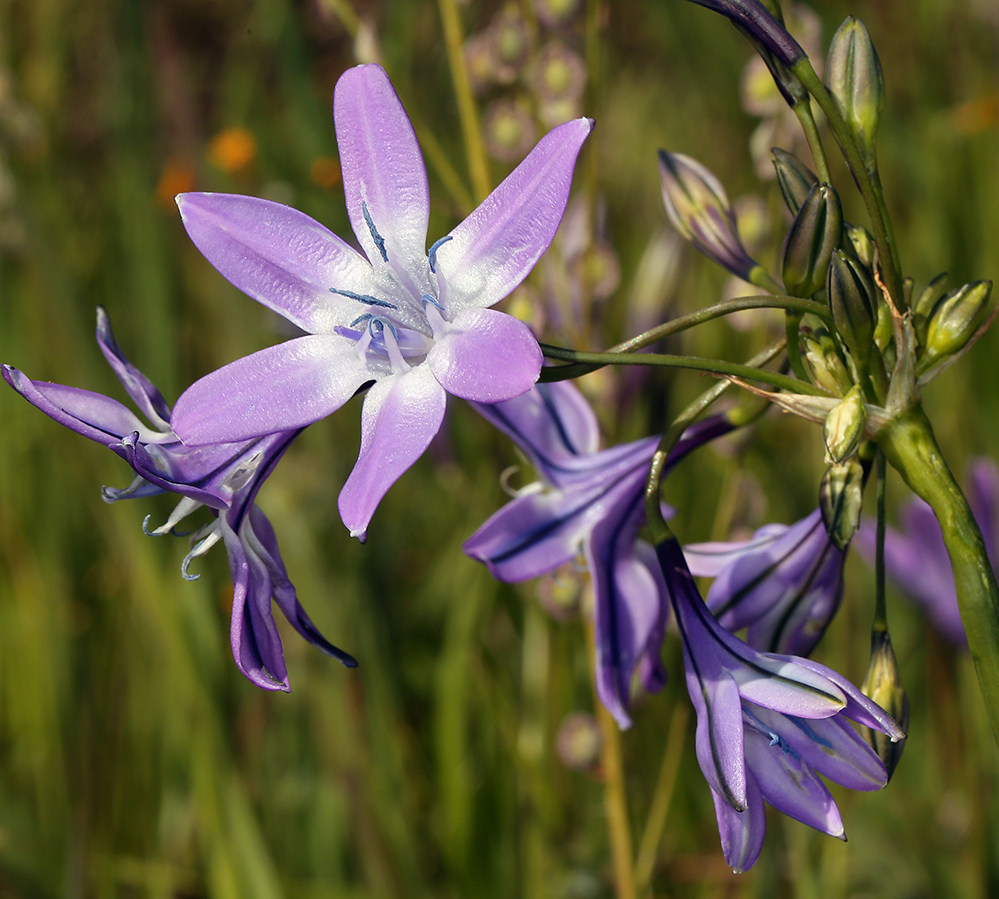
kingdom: Plantae
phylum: Tracheophyta
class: Liliopsida
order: Asparagales
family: Asparagaceae
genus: Triteleia
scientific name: Triteleia bridgesii
